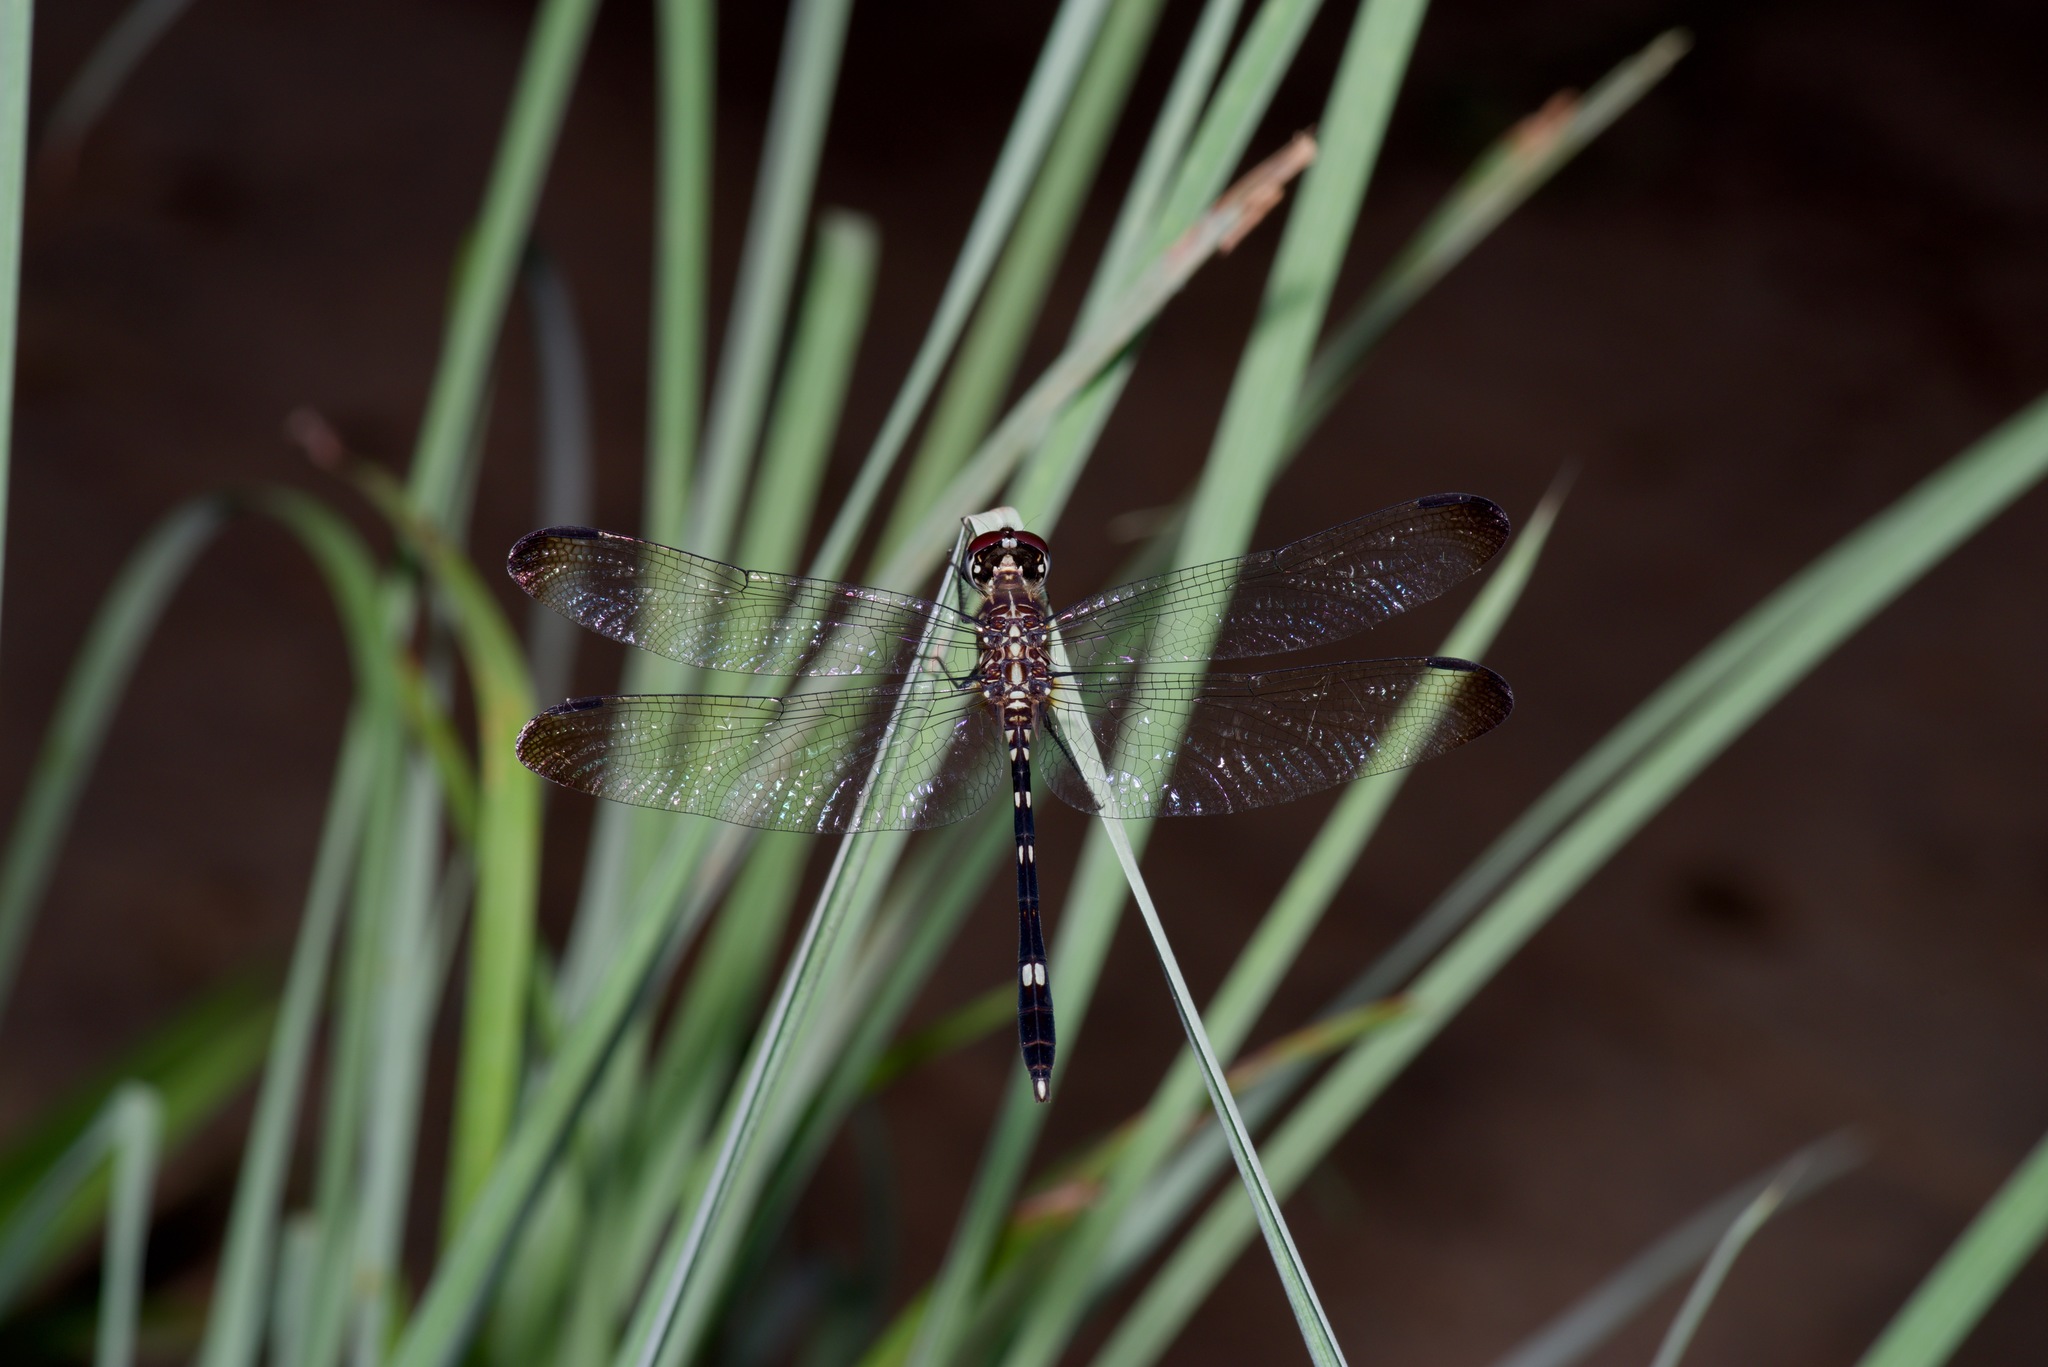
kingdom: Animalia
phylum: Arthropoda
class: Insecta
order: Odonata
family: Libellulidae
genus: Dythemis
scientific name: Dythemis velox
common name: Swift setwing
